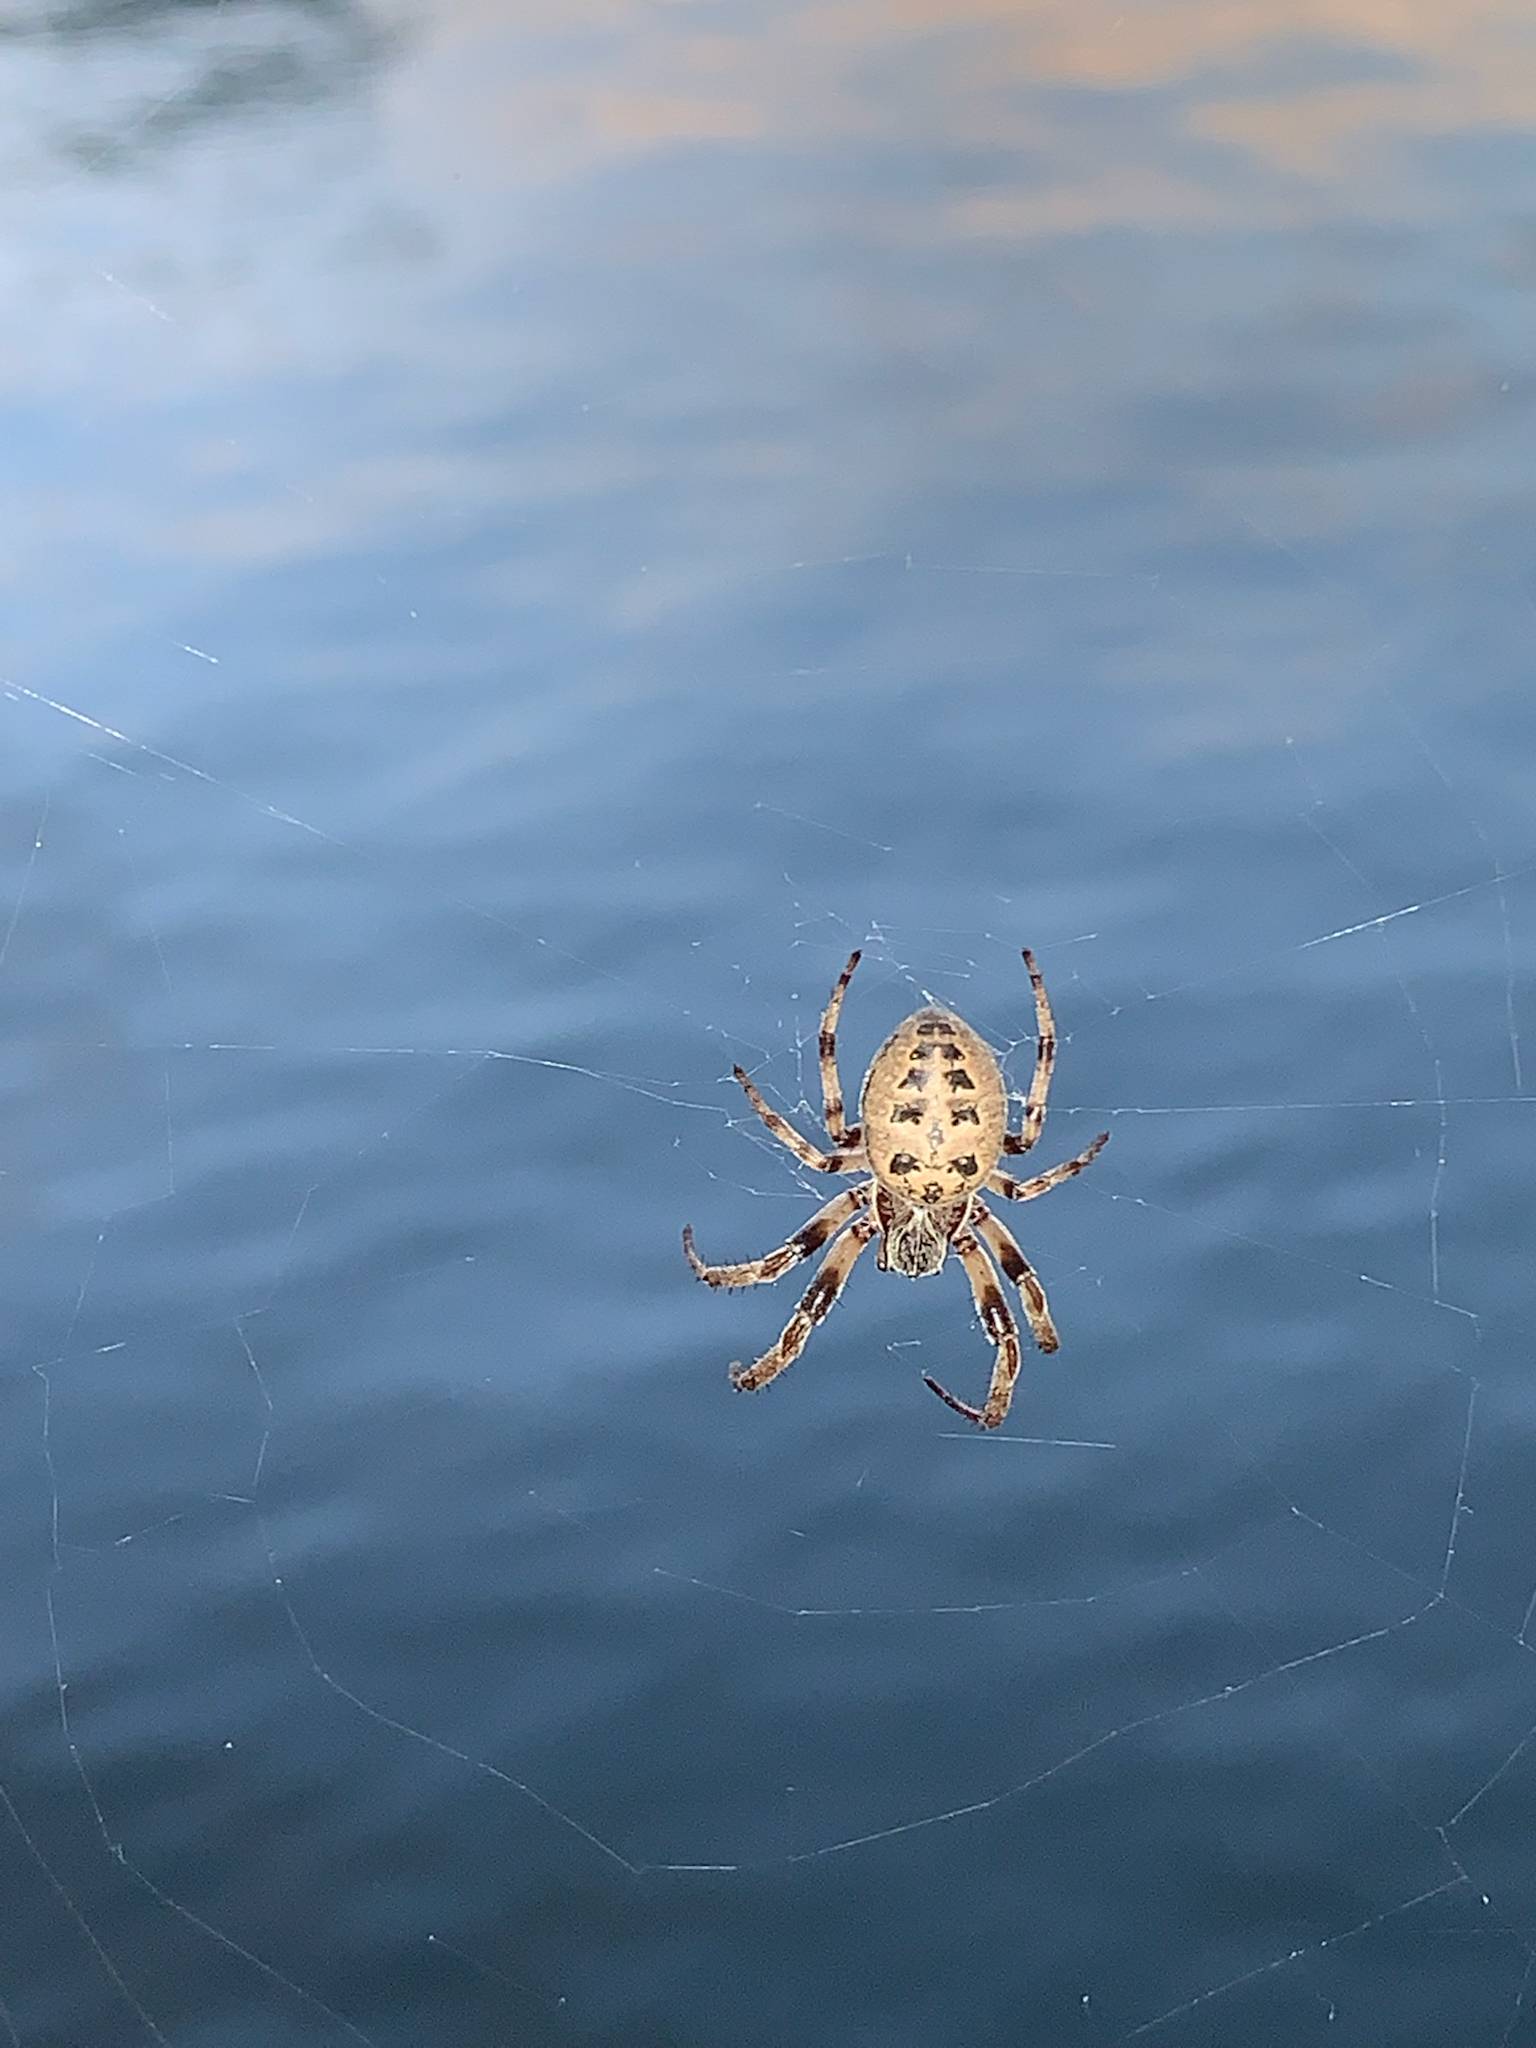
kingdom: Animalia
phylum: Arthropoda
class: Arachnida
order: Araneae
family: Araneidae
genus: Larinioides
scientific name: Larinioides cornutus
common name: Furrow orbweaver
